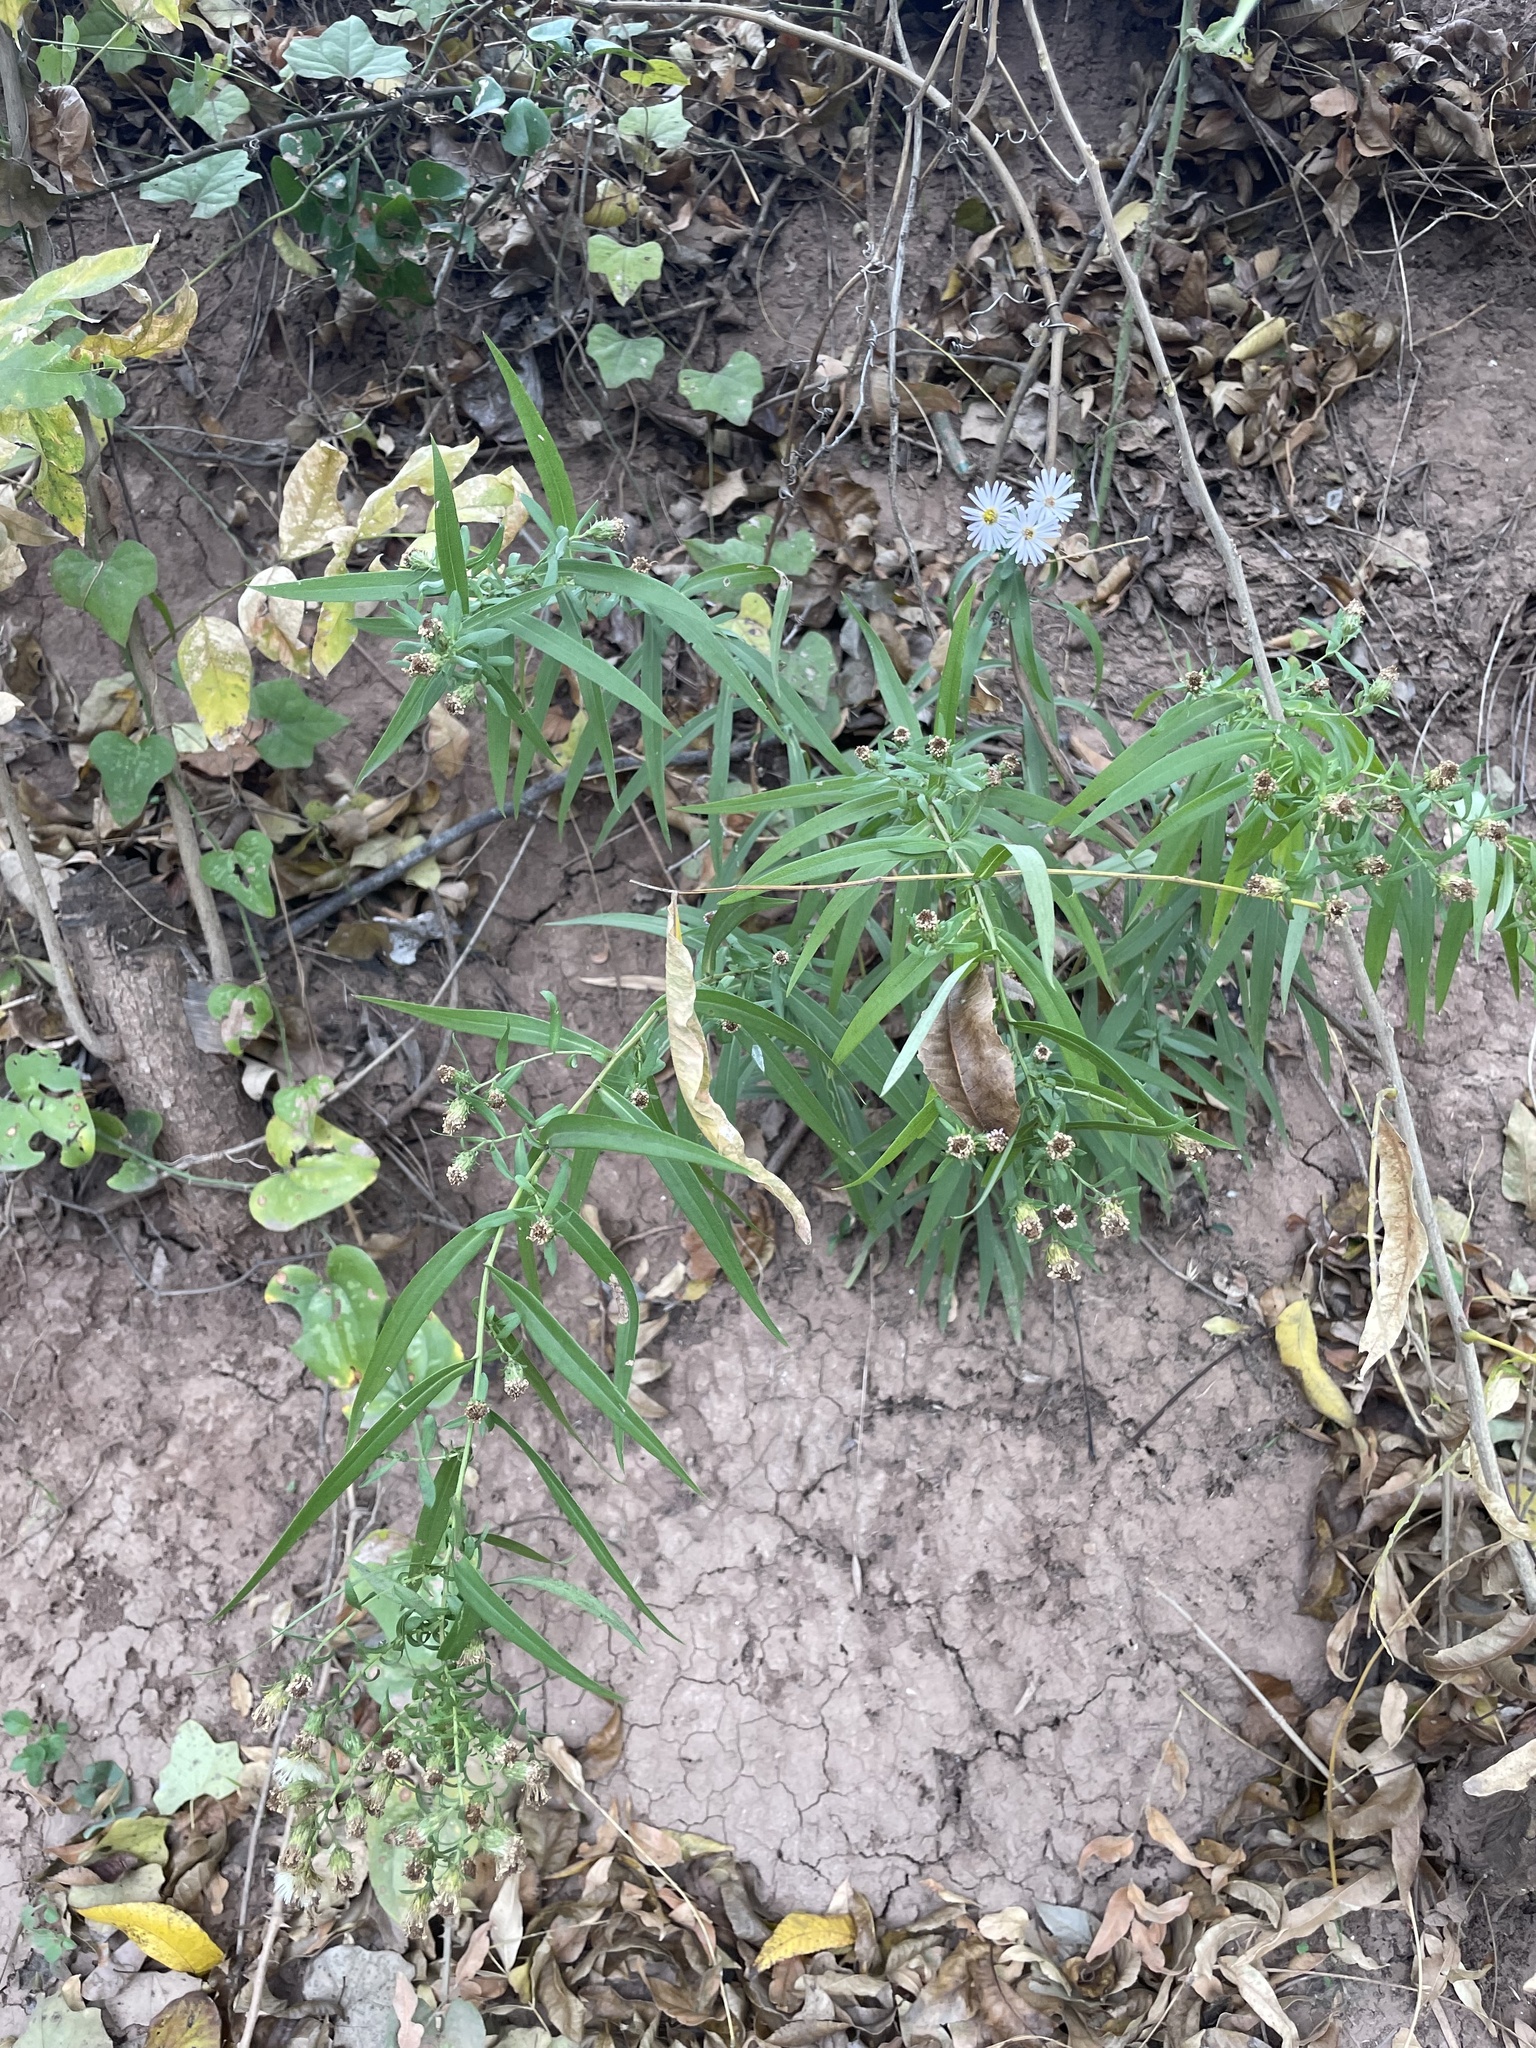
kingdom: Plantae
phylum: Tracheophyta
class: Magnoliopsida
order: Asterales
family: Asteraceae
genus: Symphyotrichum
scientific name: Symphyotrichum lanceolatum
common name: Panicled aster
